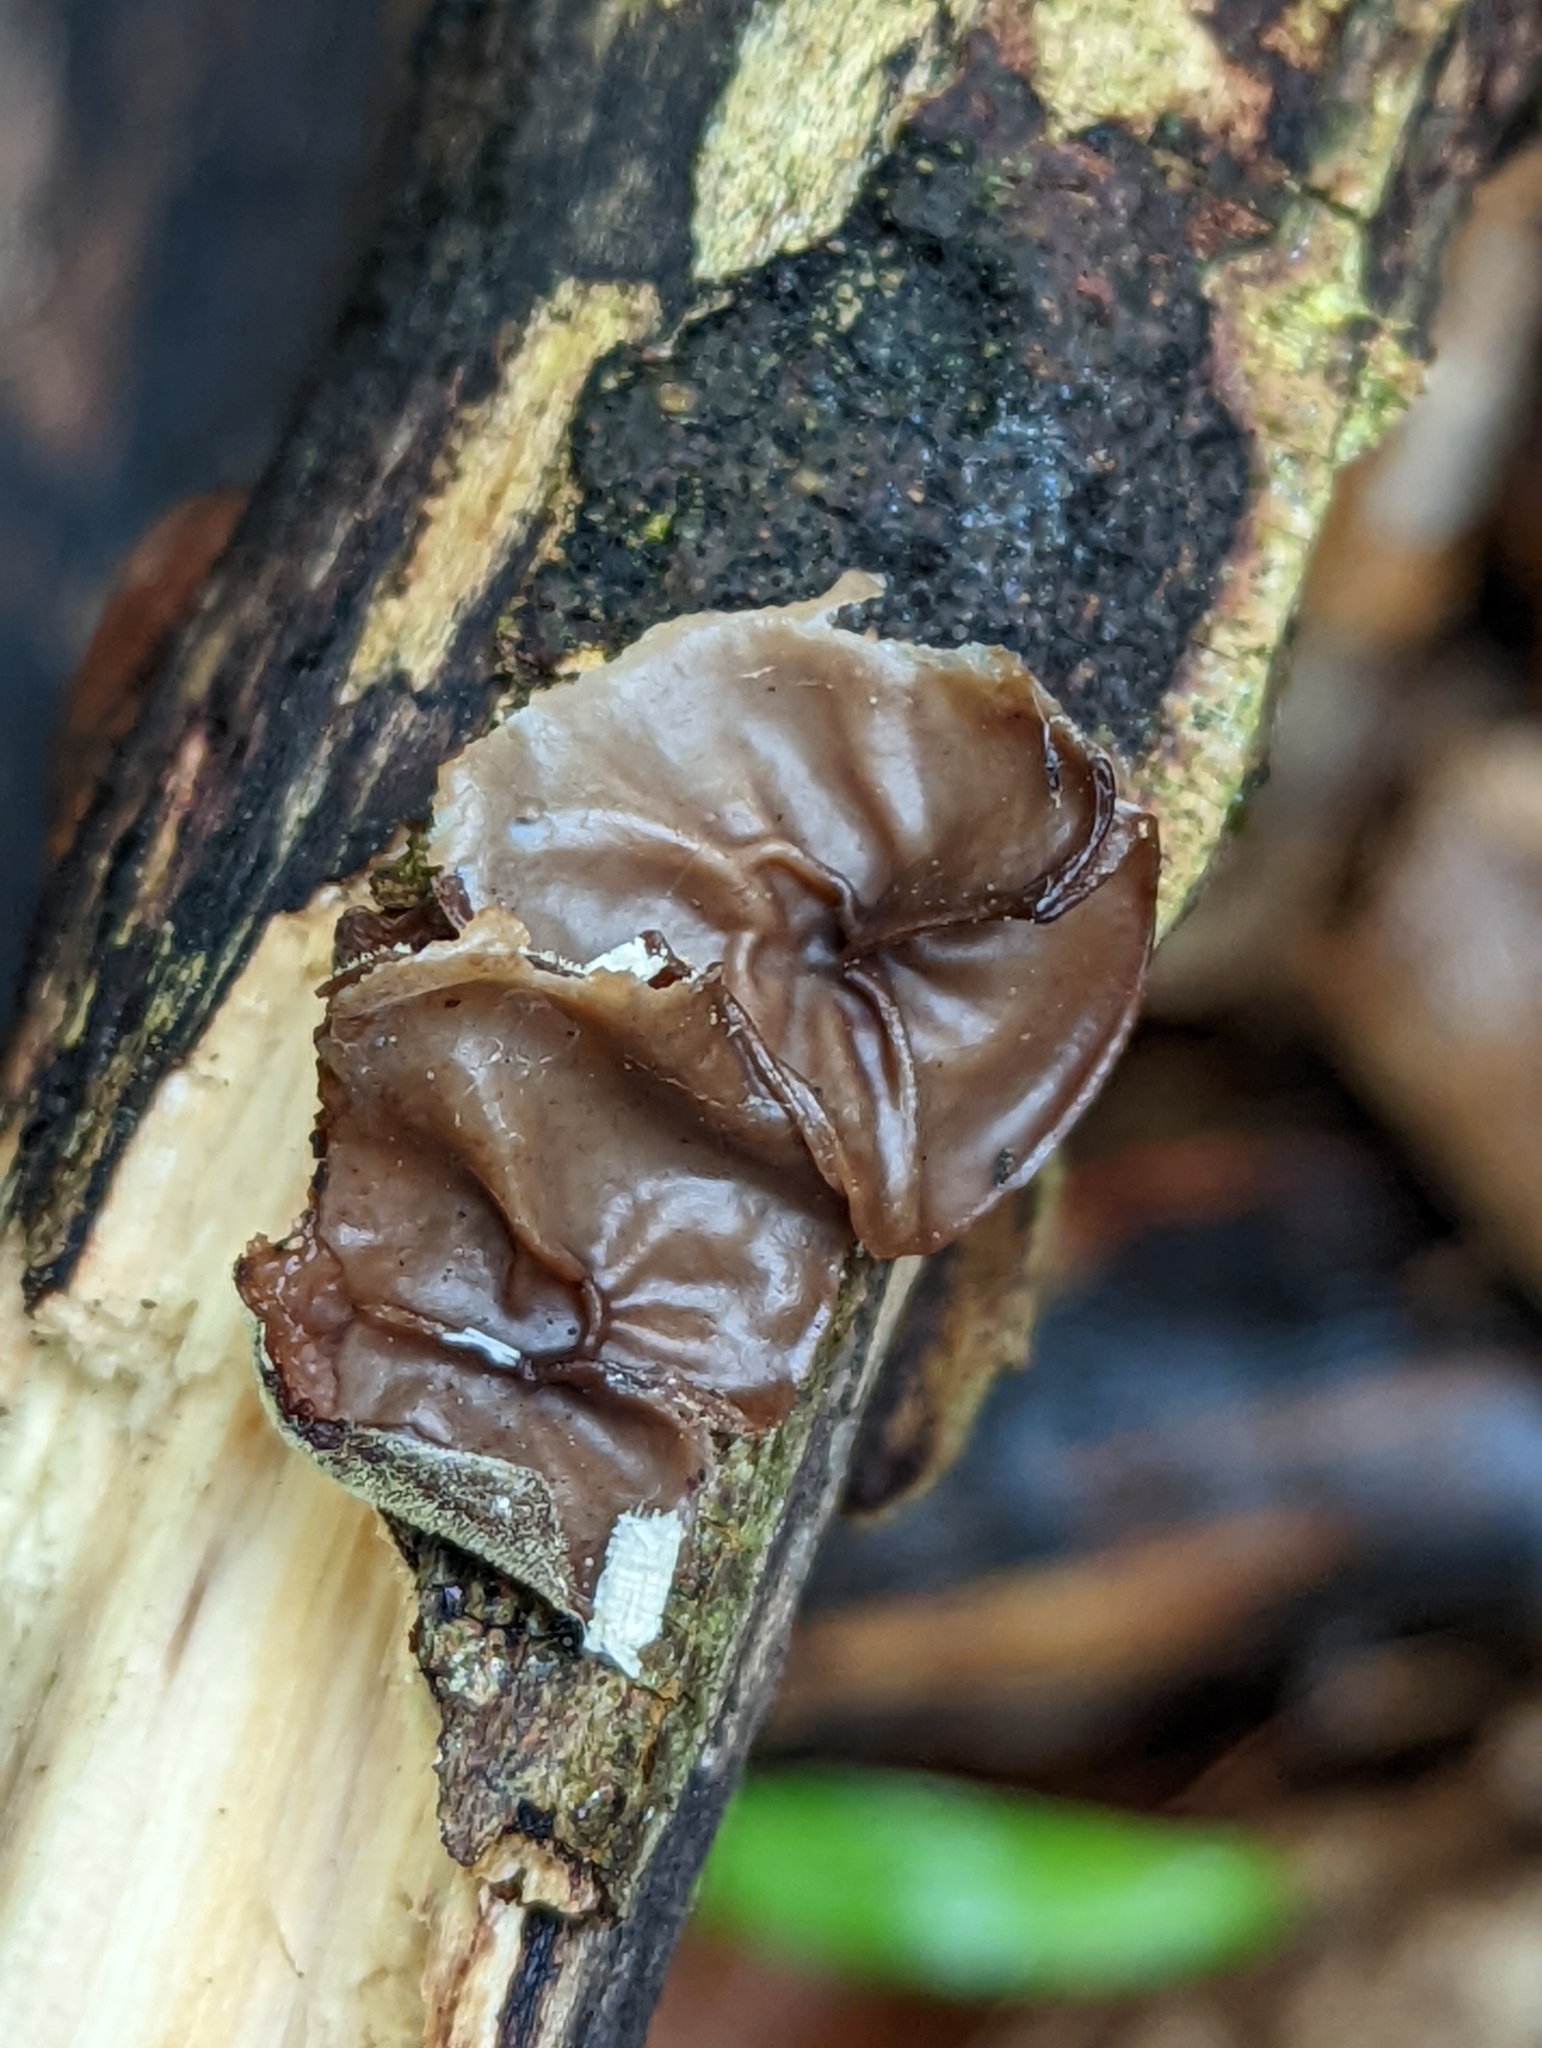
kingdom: Fungi
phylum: Basidiomycota
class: Agaricomycetes
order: Auriculariales
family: Auriculariaceae
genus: Auricularia
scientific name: Auricularia auricula-judae
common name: Jelly ear
